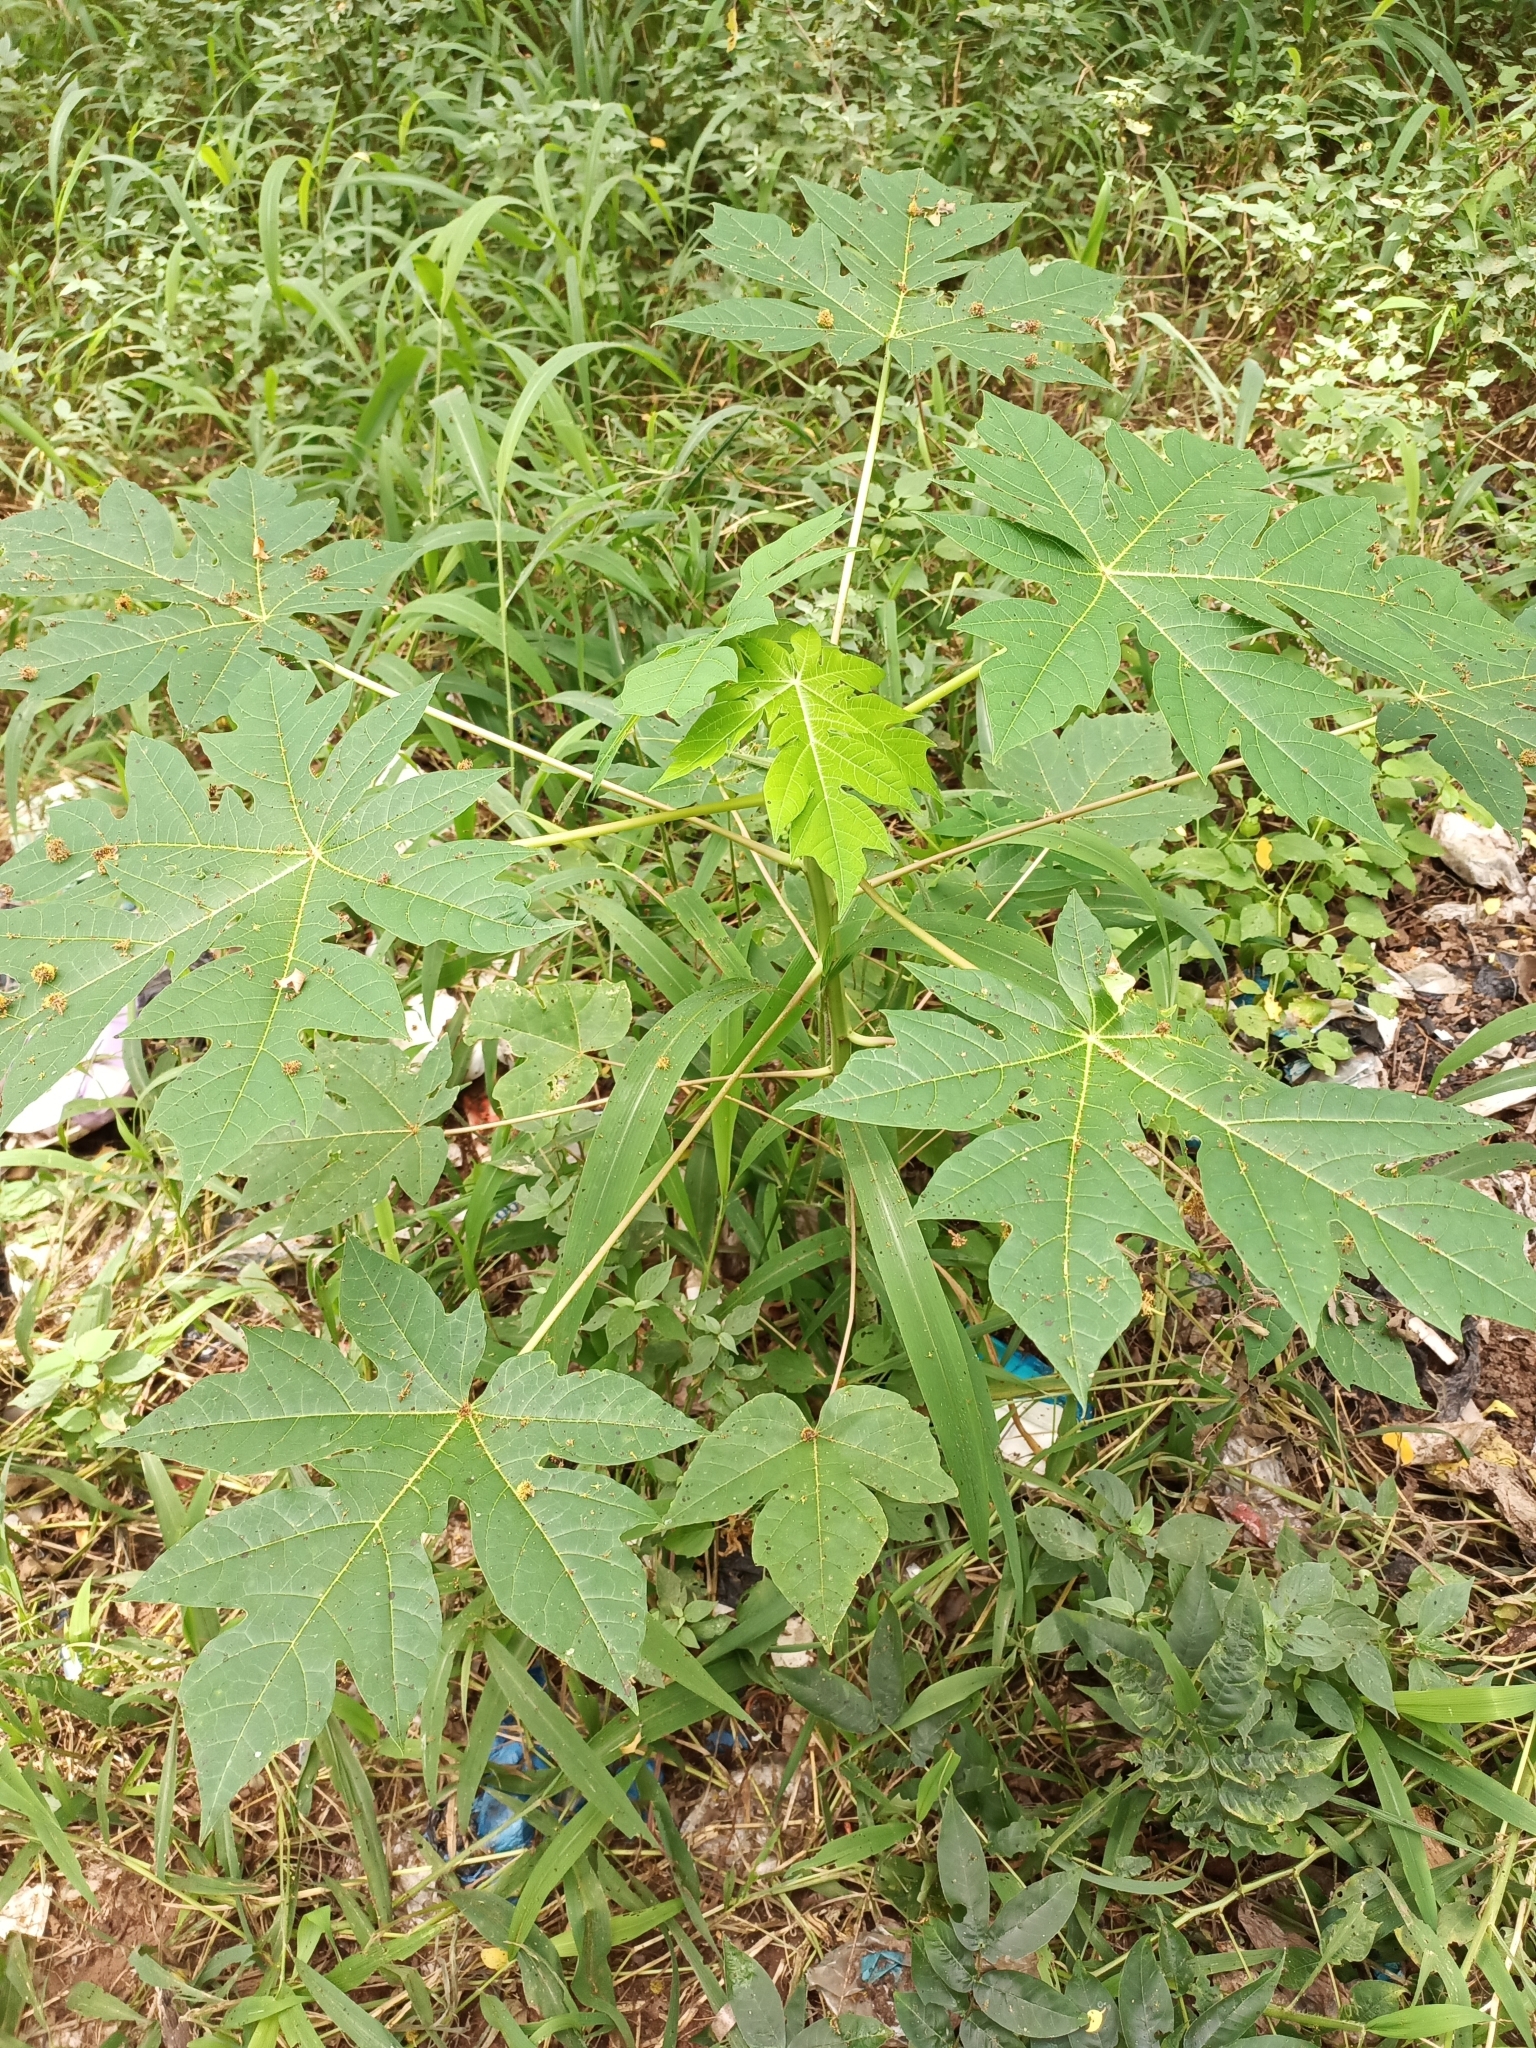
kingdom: Plantae
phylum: Tracheophyta
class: Magnoliopsida
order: Brassicales
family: Caricaceae
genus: Carica
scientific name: Carica papaya
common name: Papaya
